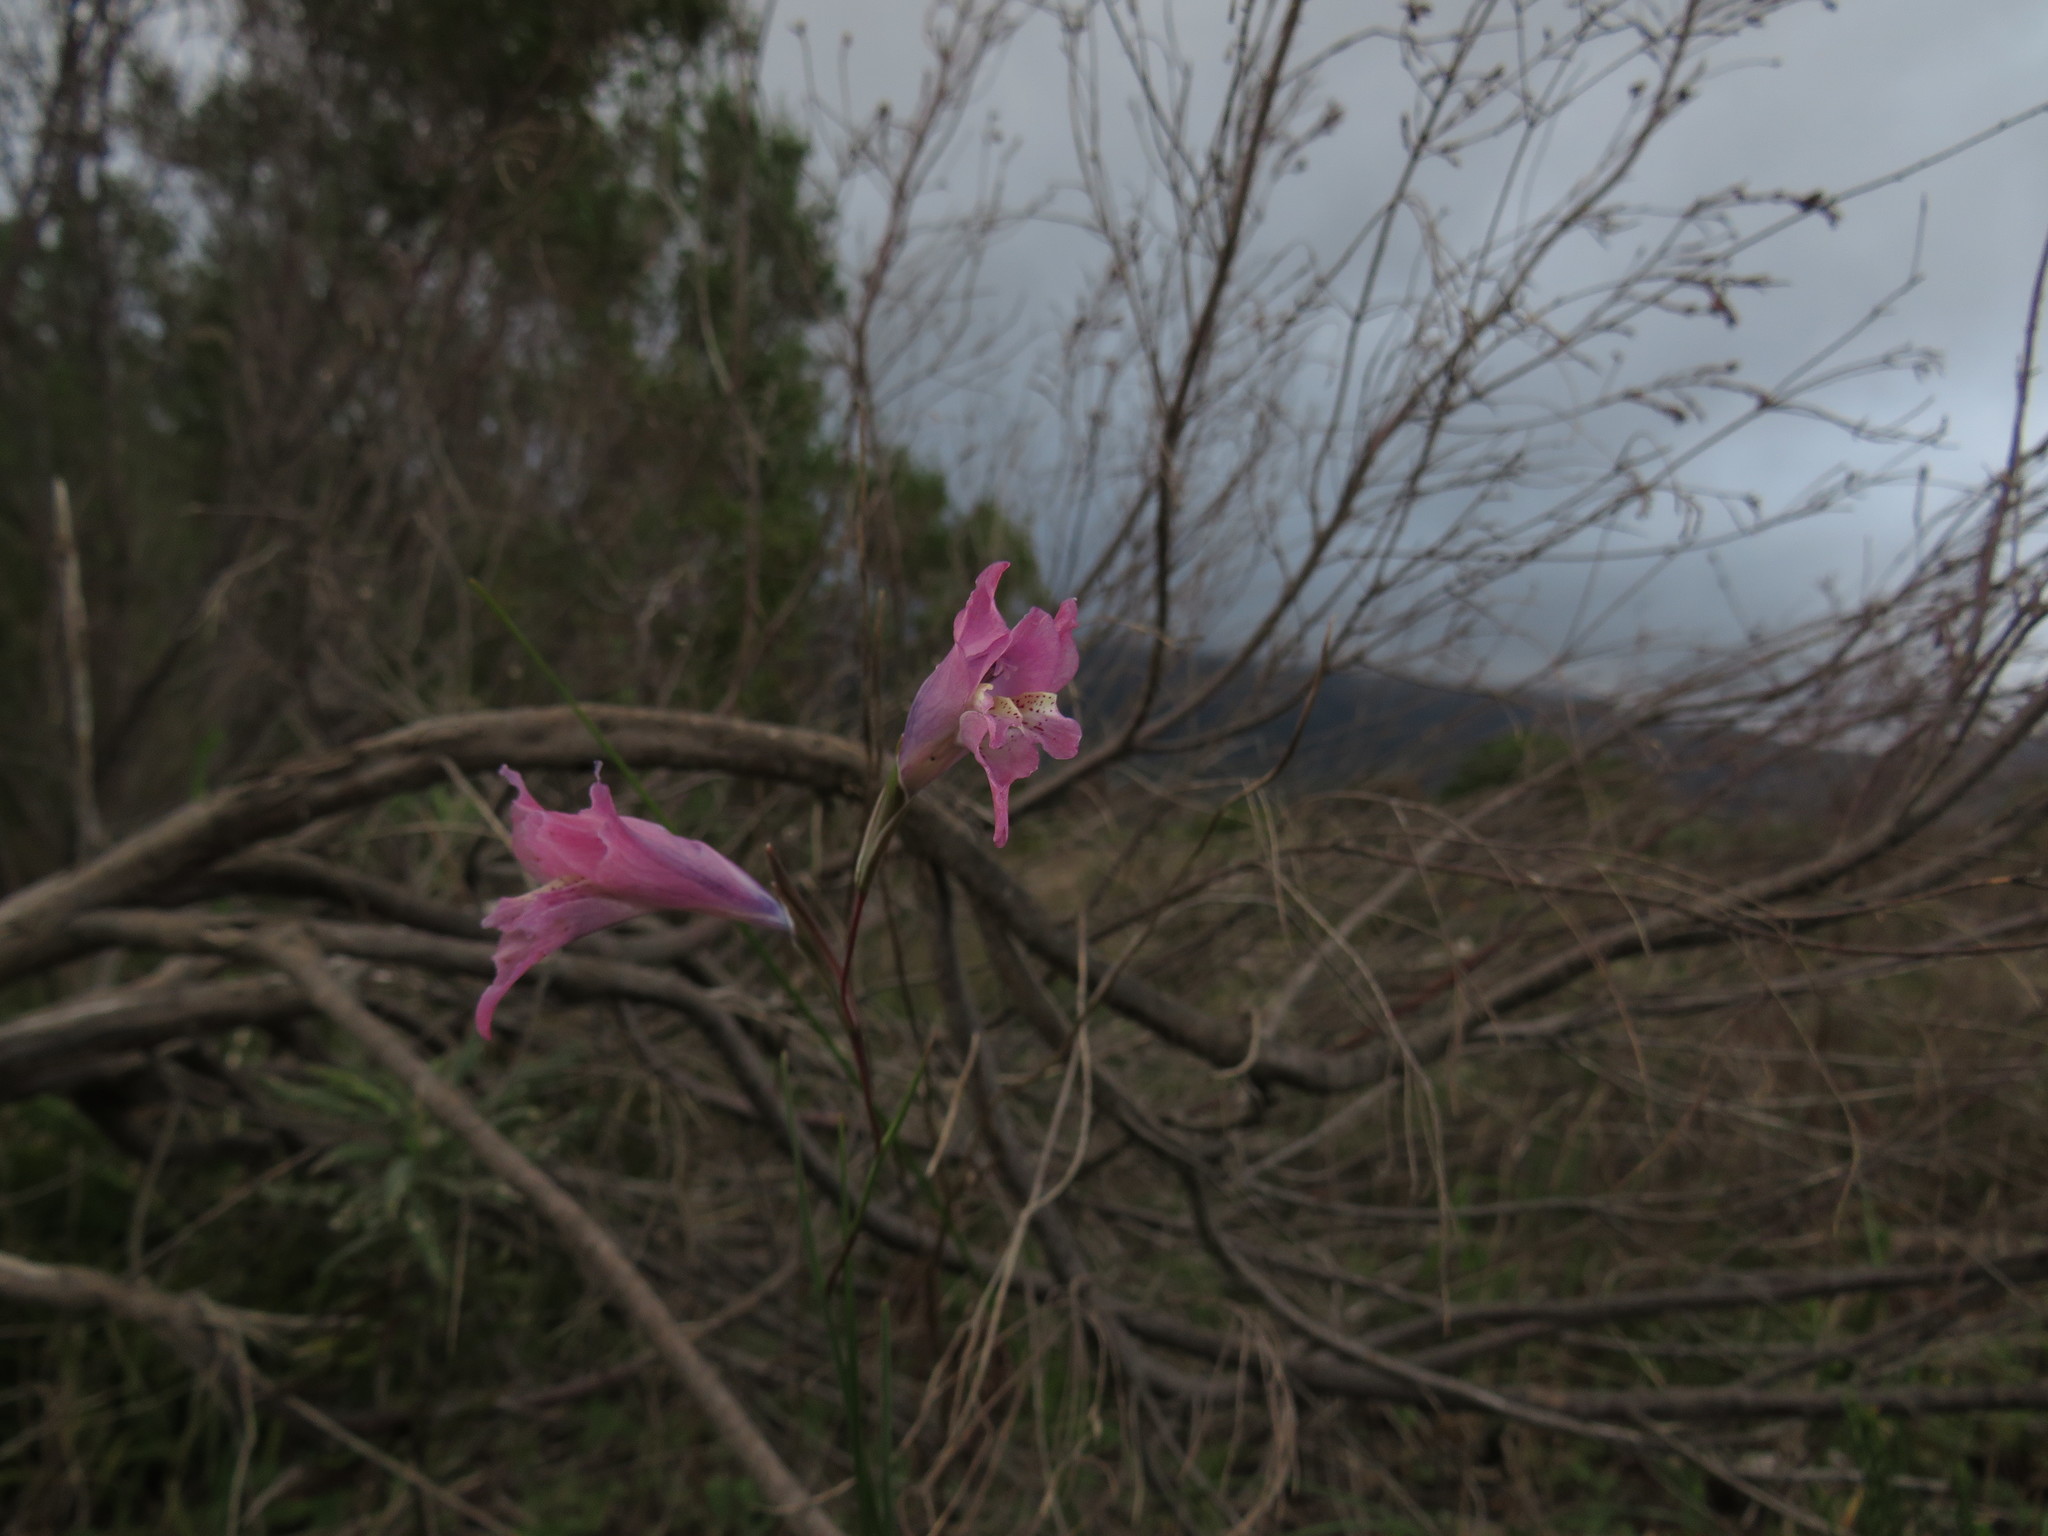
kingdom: Plantae
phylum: Tracheophyta
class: Liliopsida
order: Asparagales
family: Iridaceae
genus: Gladiolus
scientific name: Gladiolus gracilis
